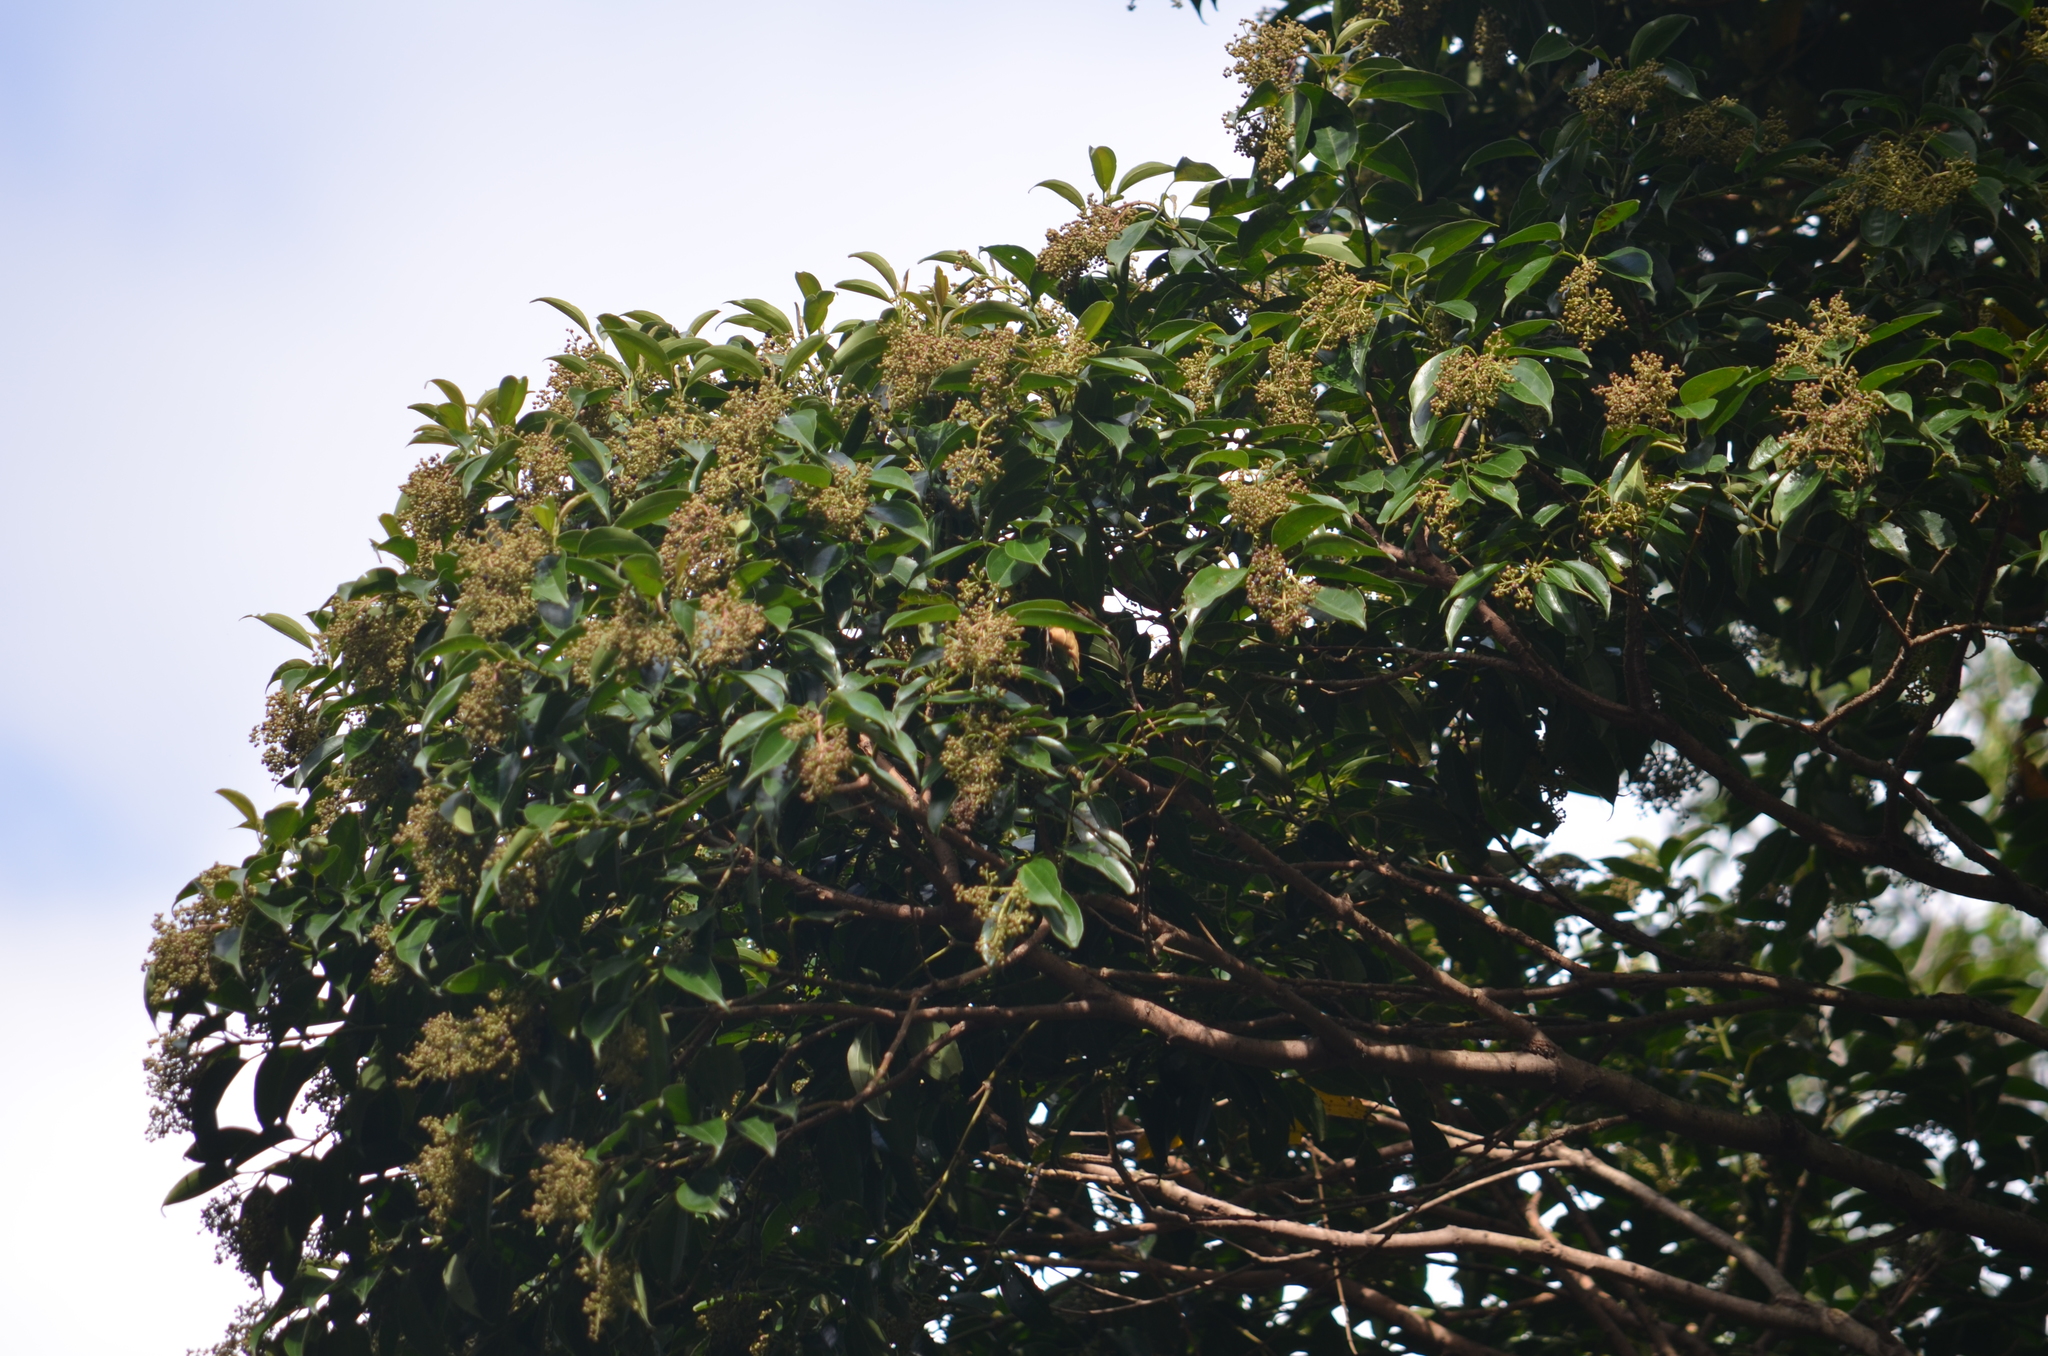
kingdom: Plantae
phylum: Tracheophyta
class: Magnoliopsida
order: Myrtales
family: Melastomataceae
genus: Miconia
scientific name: Miconia cinnamomifolia
